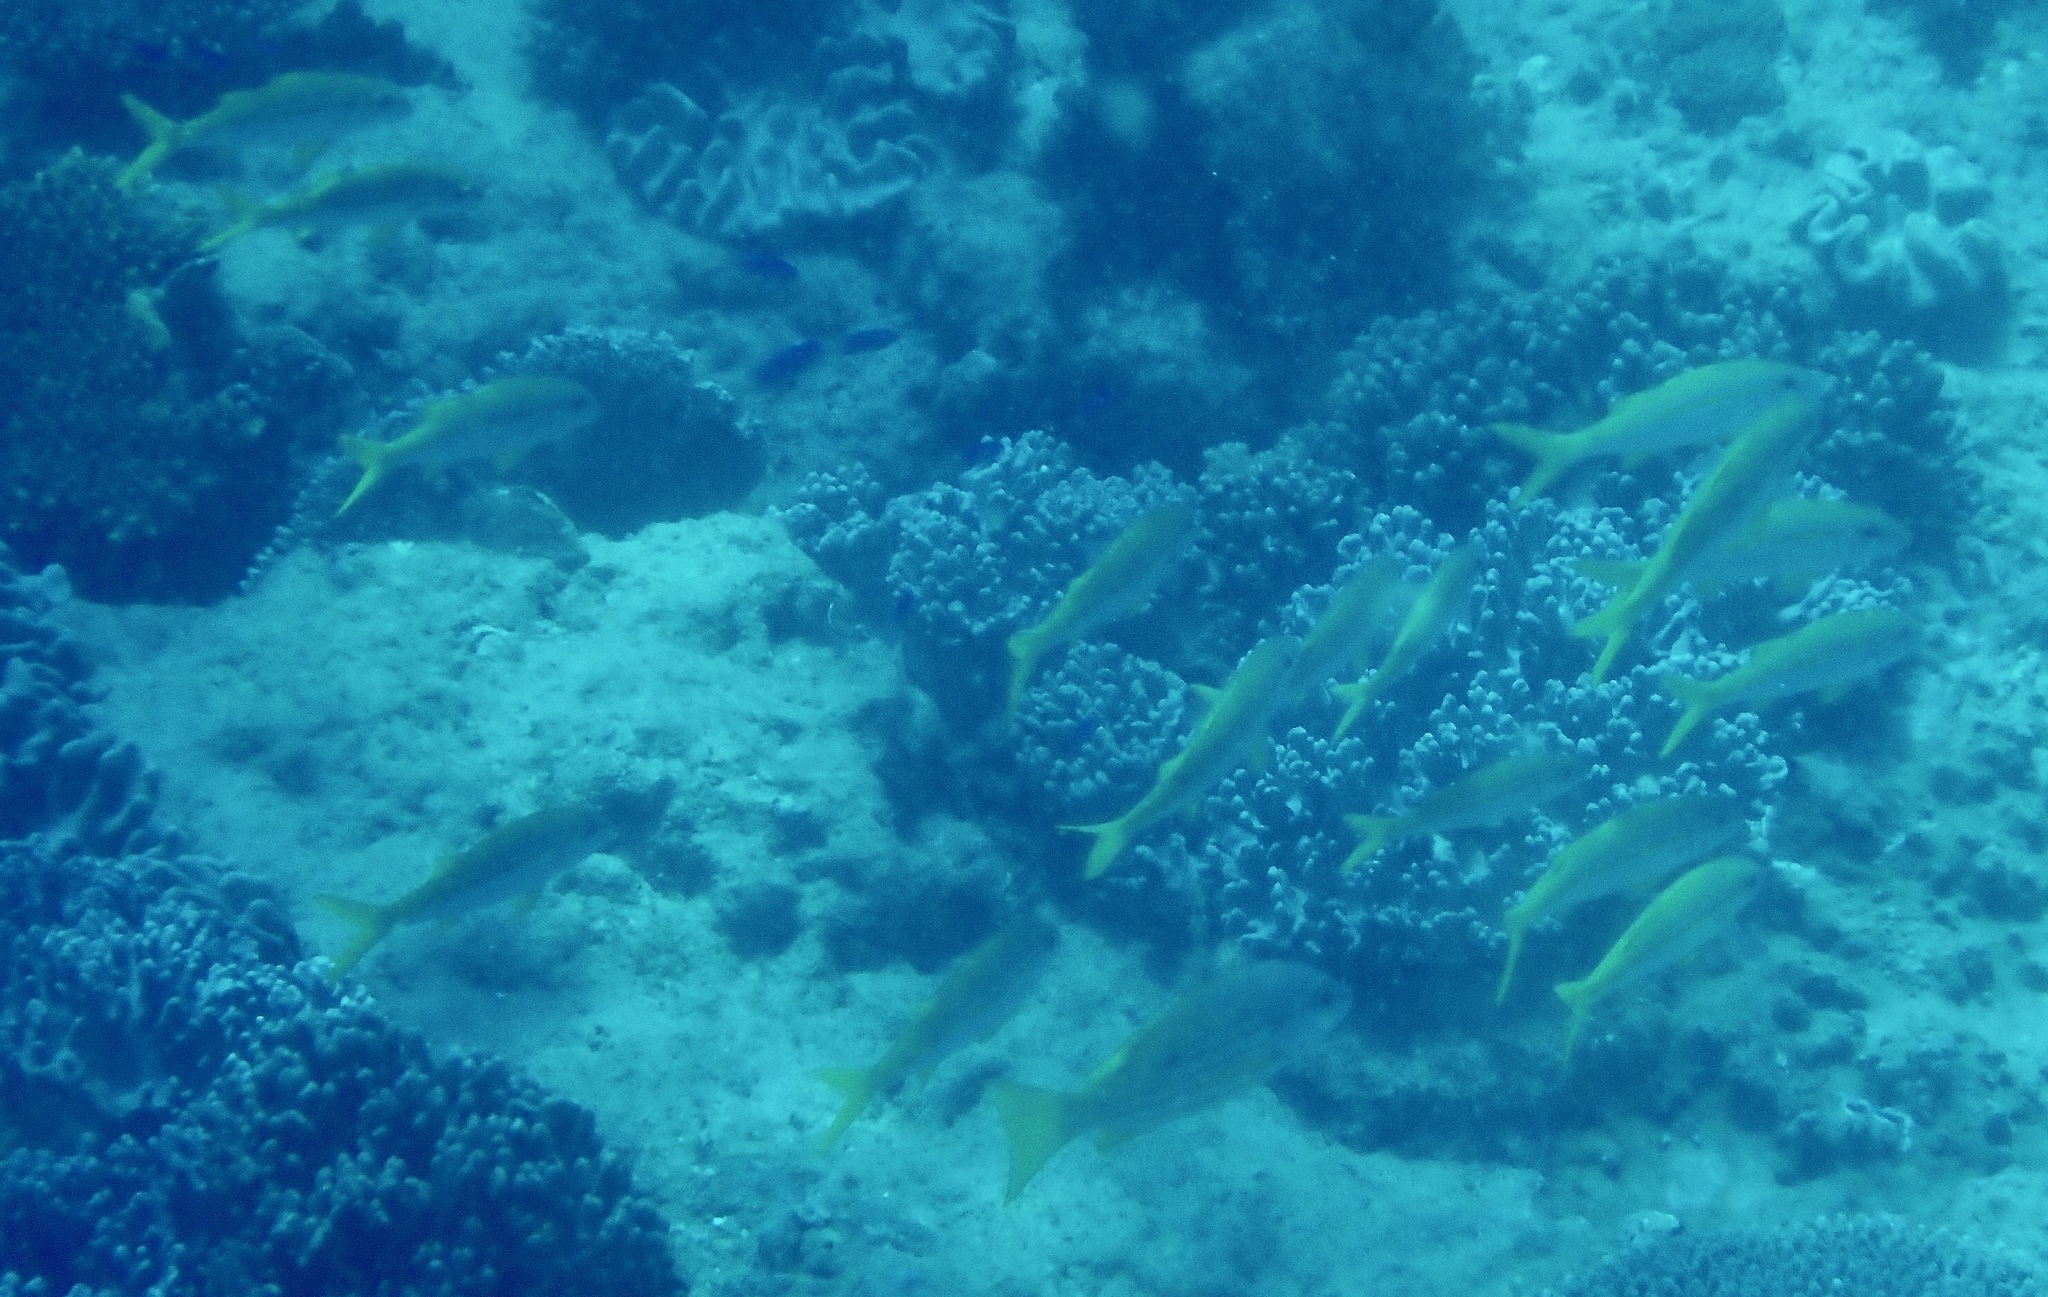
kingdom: Animalia
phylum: Chordata
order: Perciformes
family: Mullidae
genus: Mulloidichthys
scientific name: Mulloidichthys vanicolensis
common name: Yellowfin goatfish
